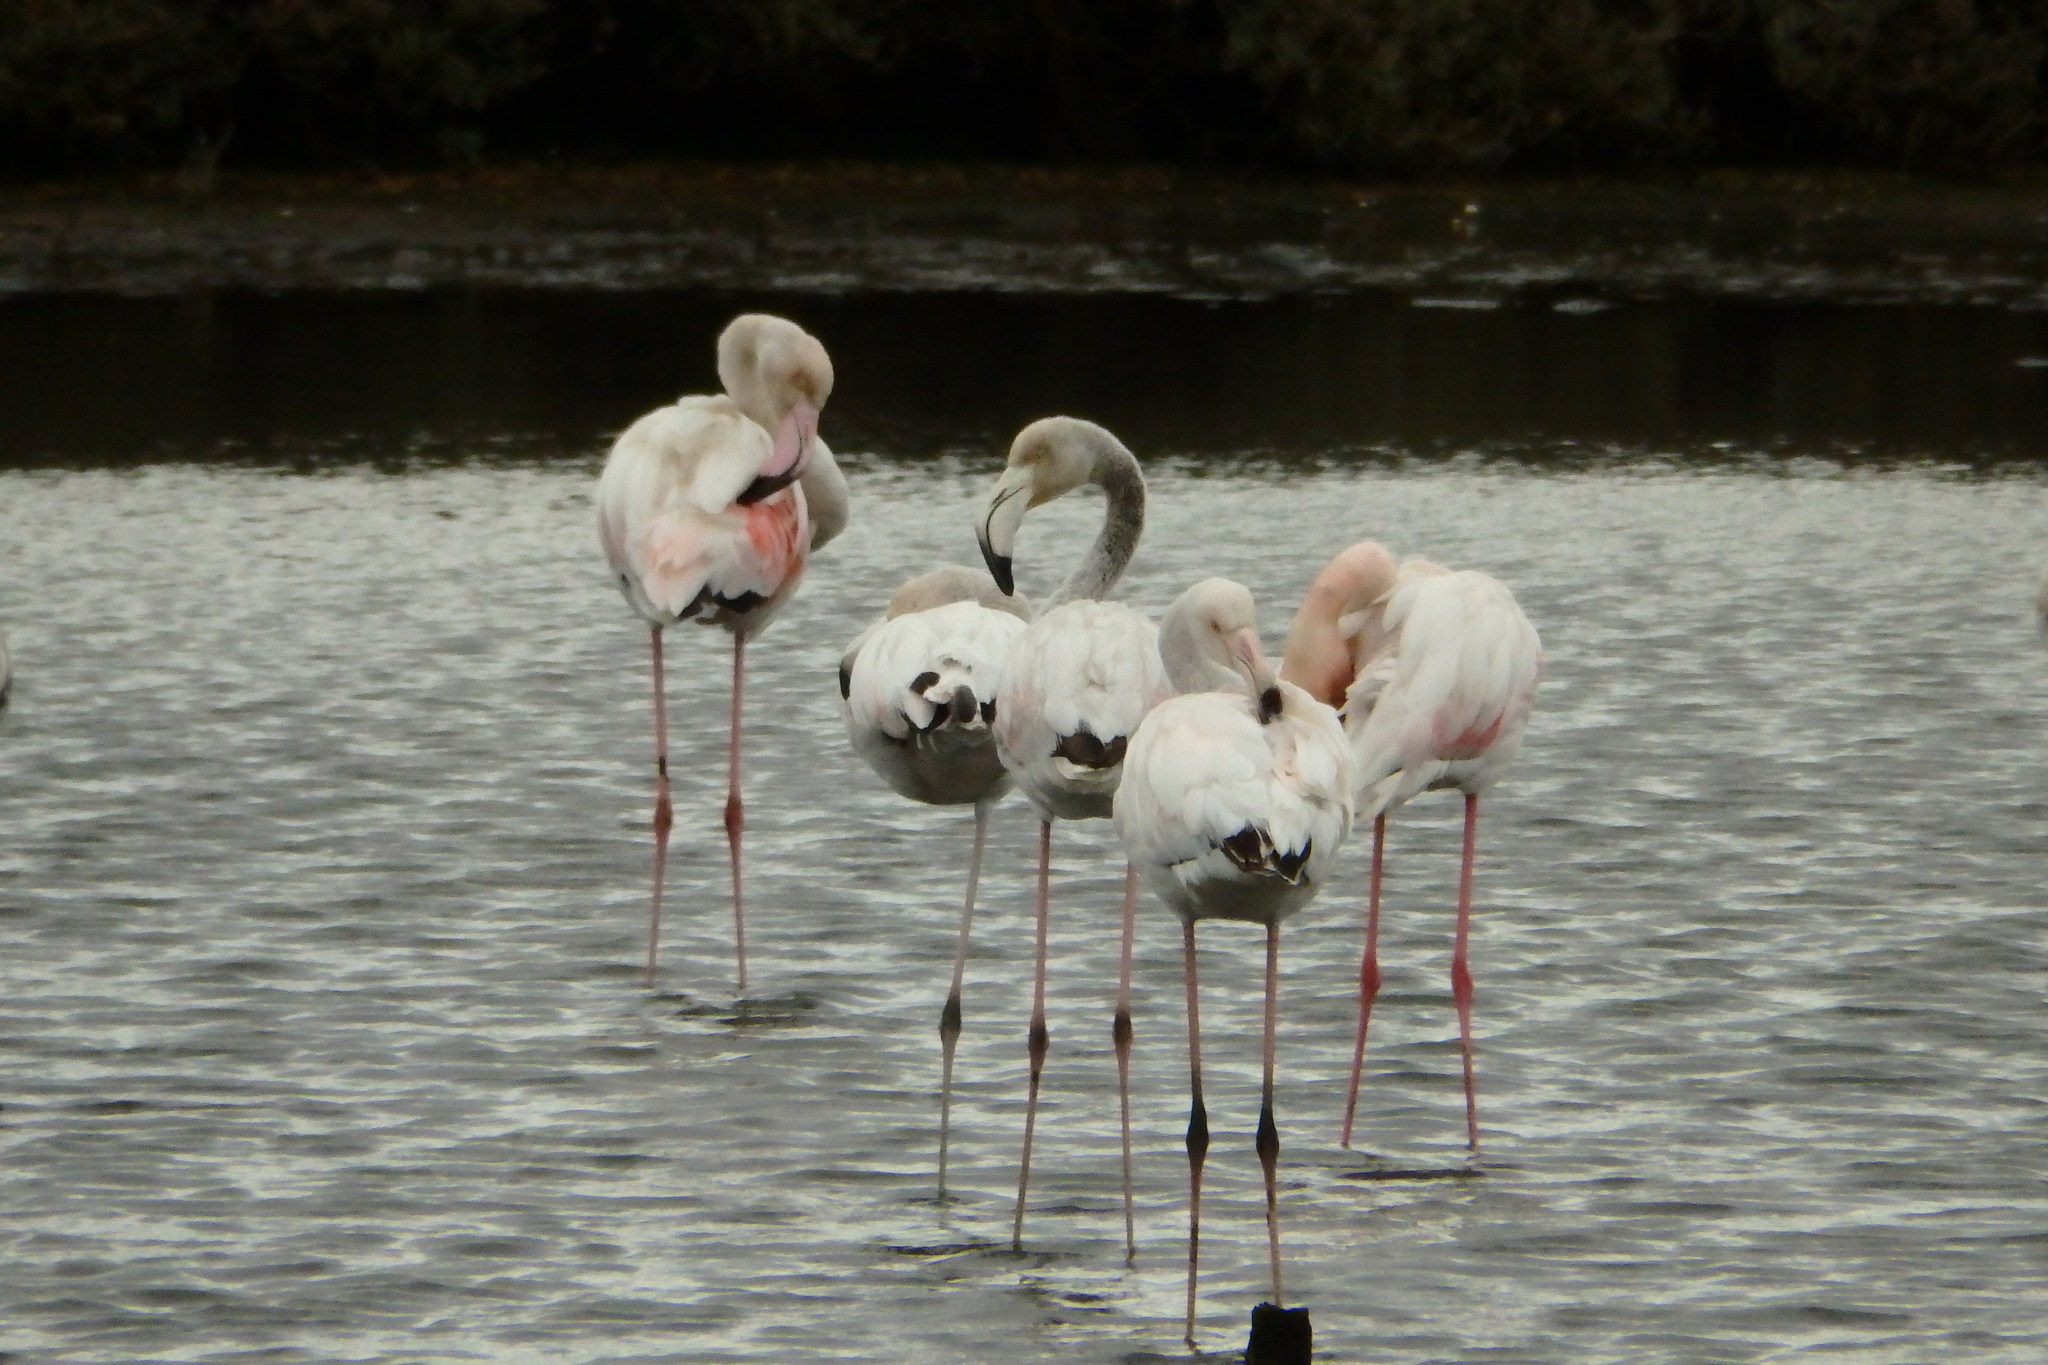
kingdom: Animalia
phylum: Chordata
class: Aves
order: Phoenicopteriformes
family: Phoenicopteridae
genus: Phoenicopterus
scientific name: Phoenicopterus roseus
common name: Greater flamingo
